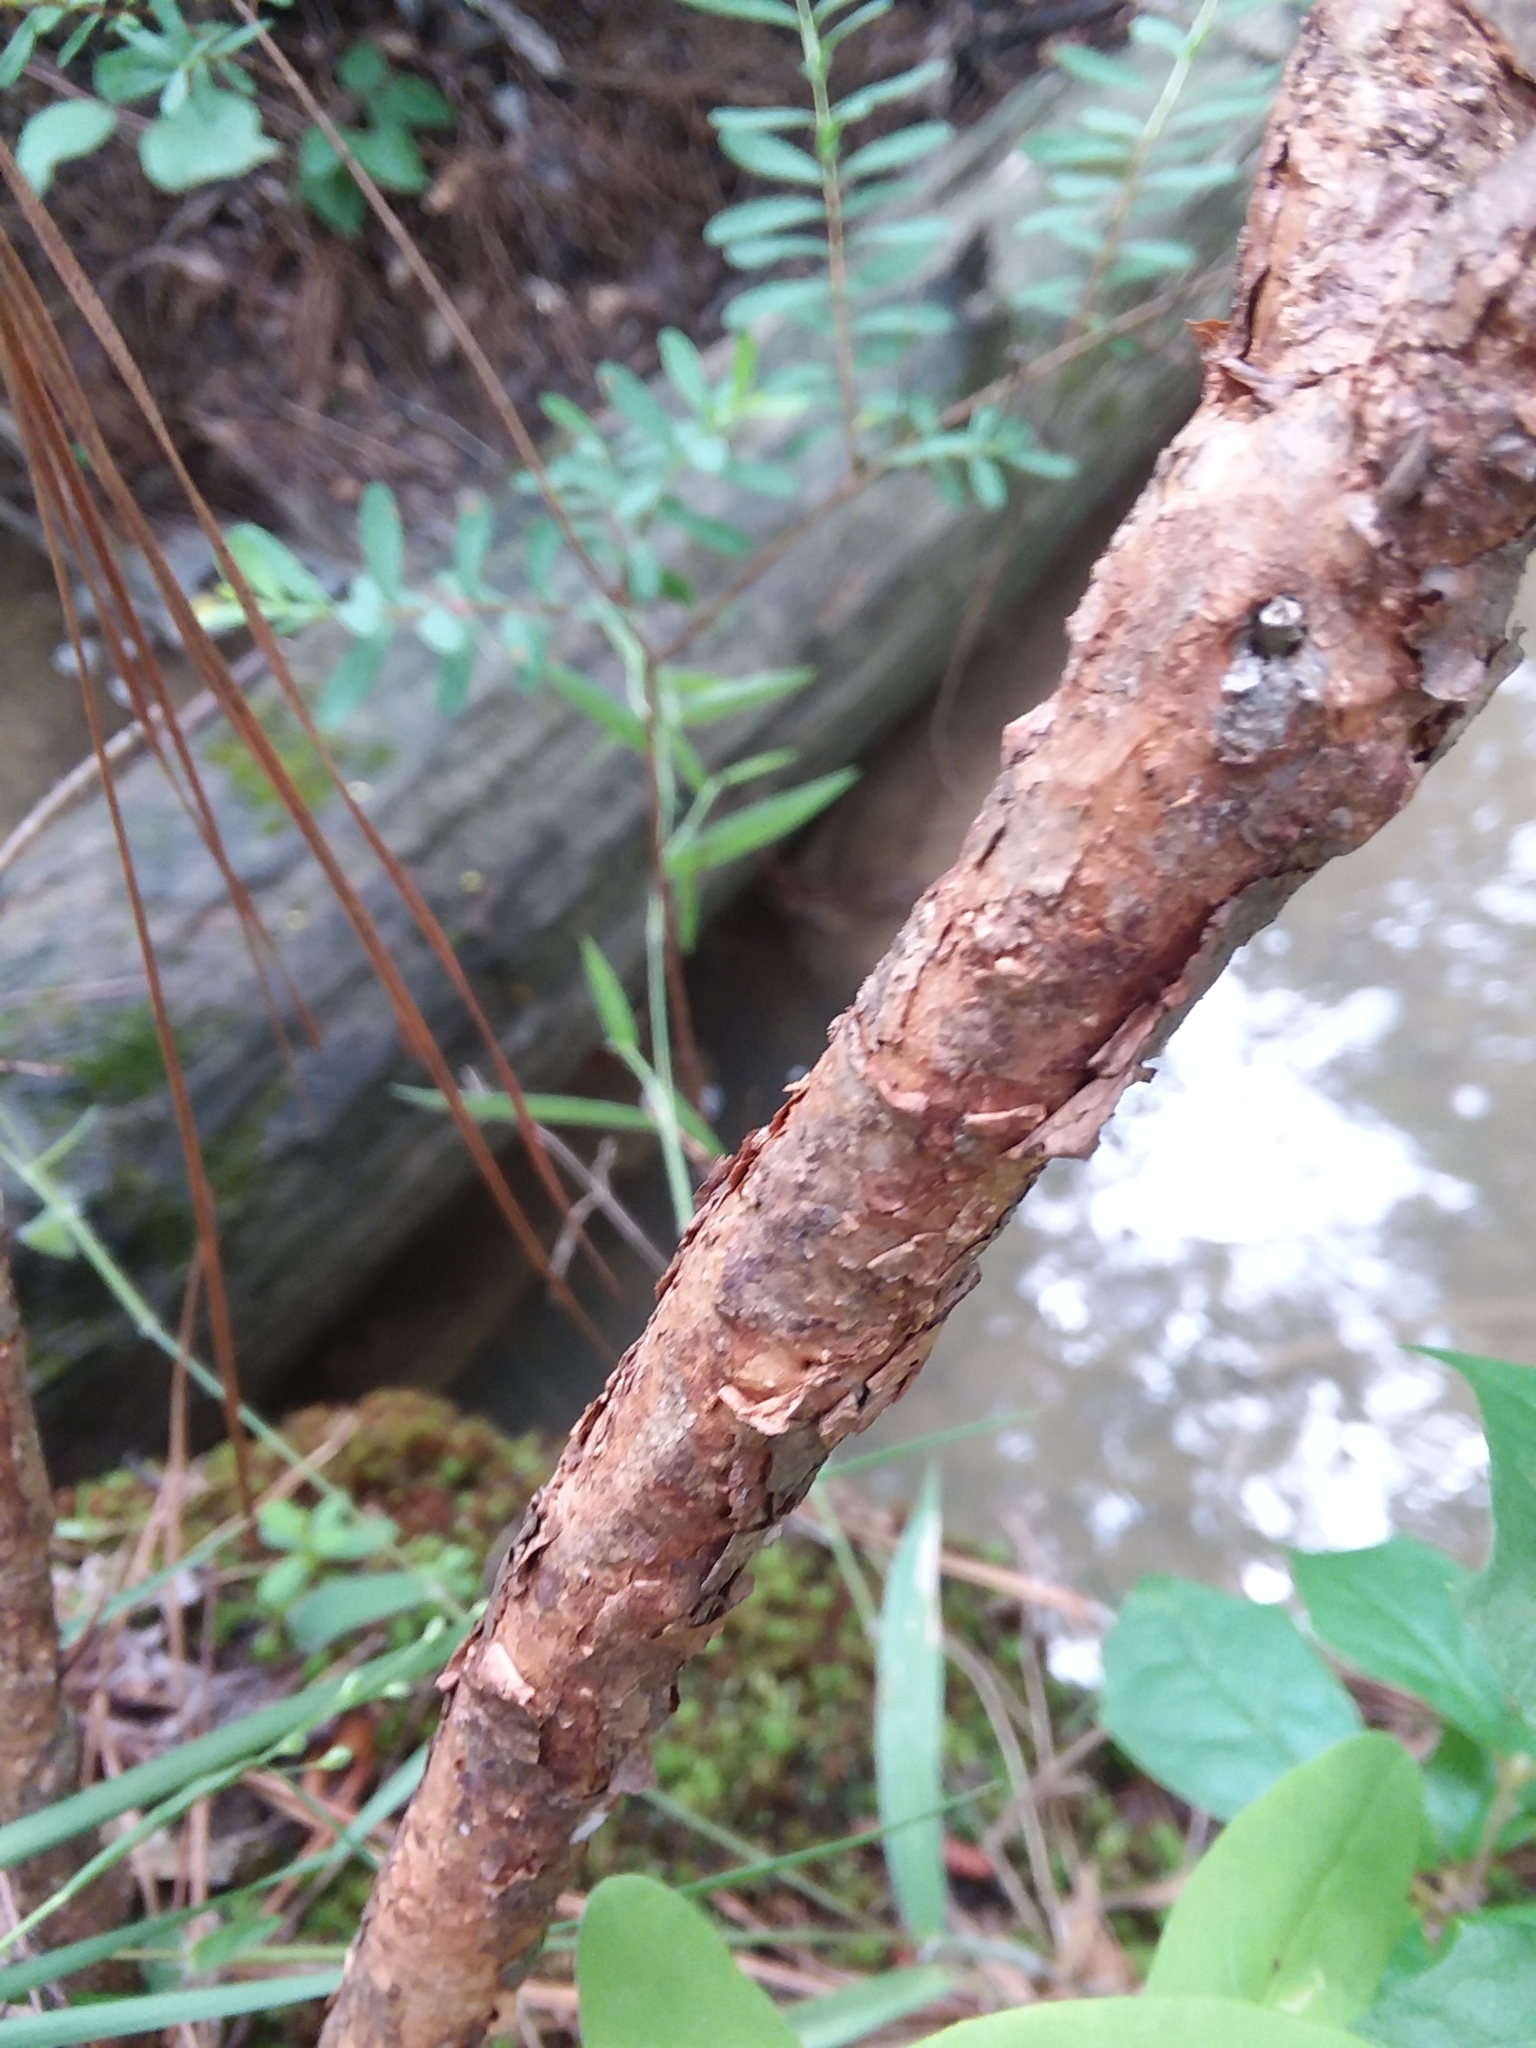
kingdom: Plantae
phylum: Tracheophyta
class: Magnoliopsida
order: Malpighiales
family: Hypericaceae
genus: Hypericum
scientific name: Hypericum nudiflorum
